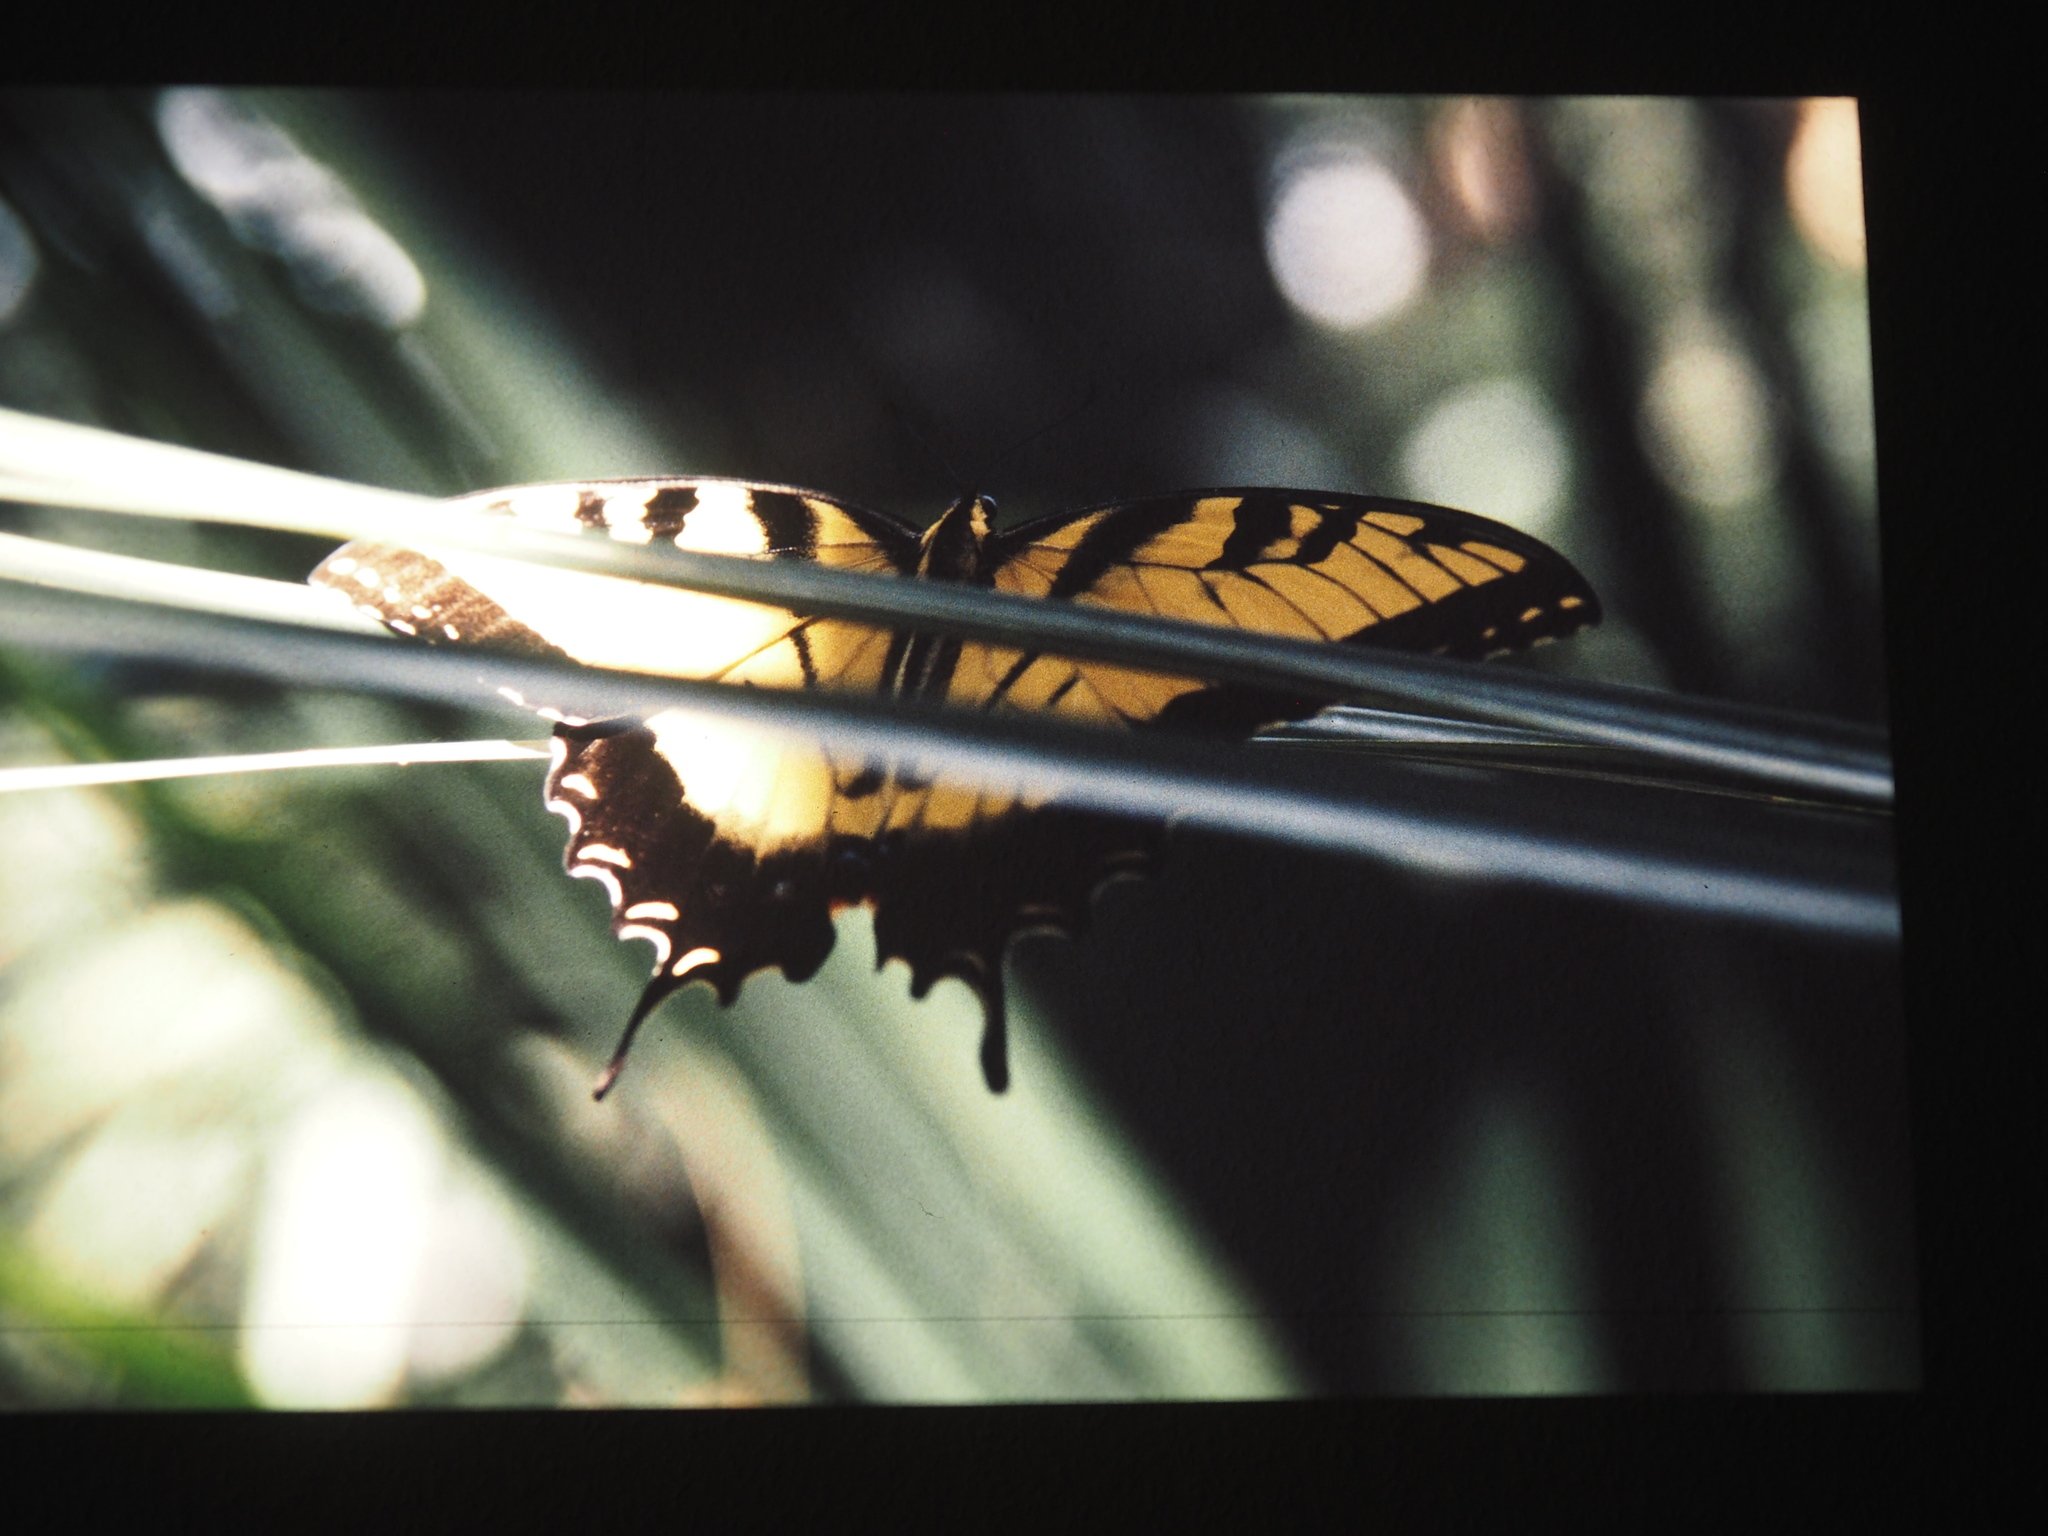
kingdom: Animalia
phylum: Arthropoda
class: Insecta
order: Lepidoptera
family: Papilionidae
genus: Papilio
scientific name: Papilio glaucus
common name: Tiger swallowtail
